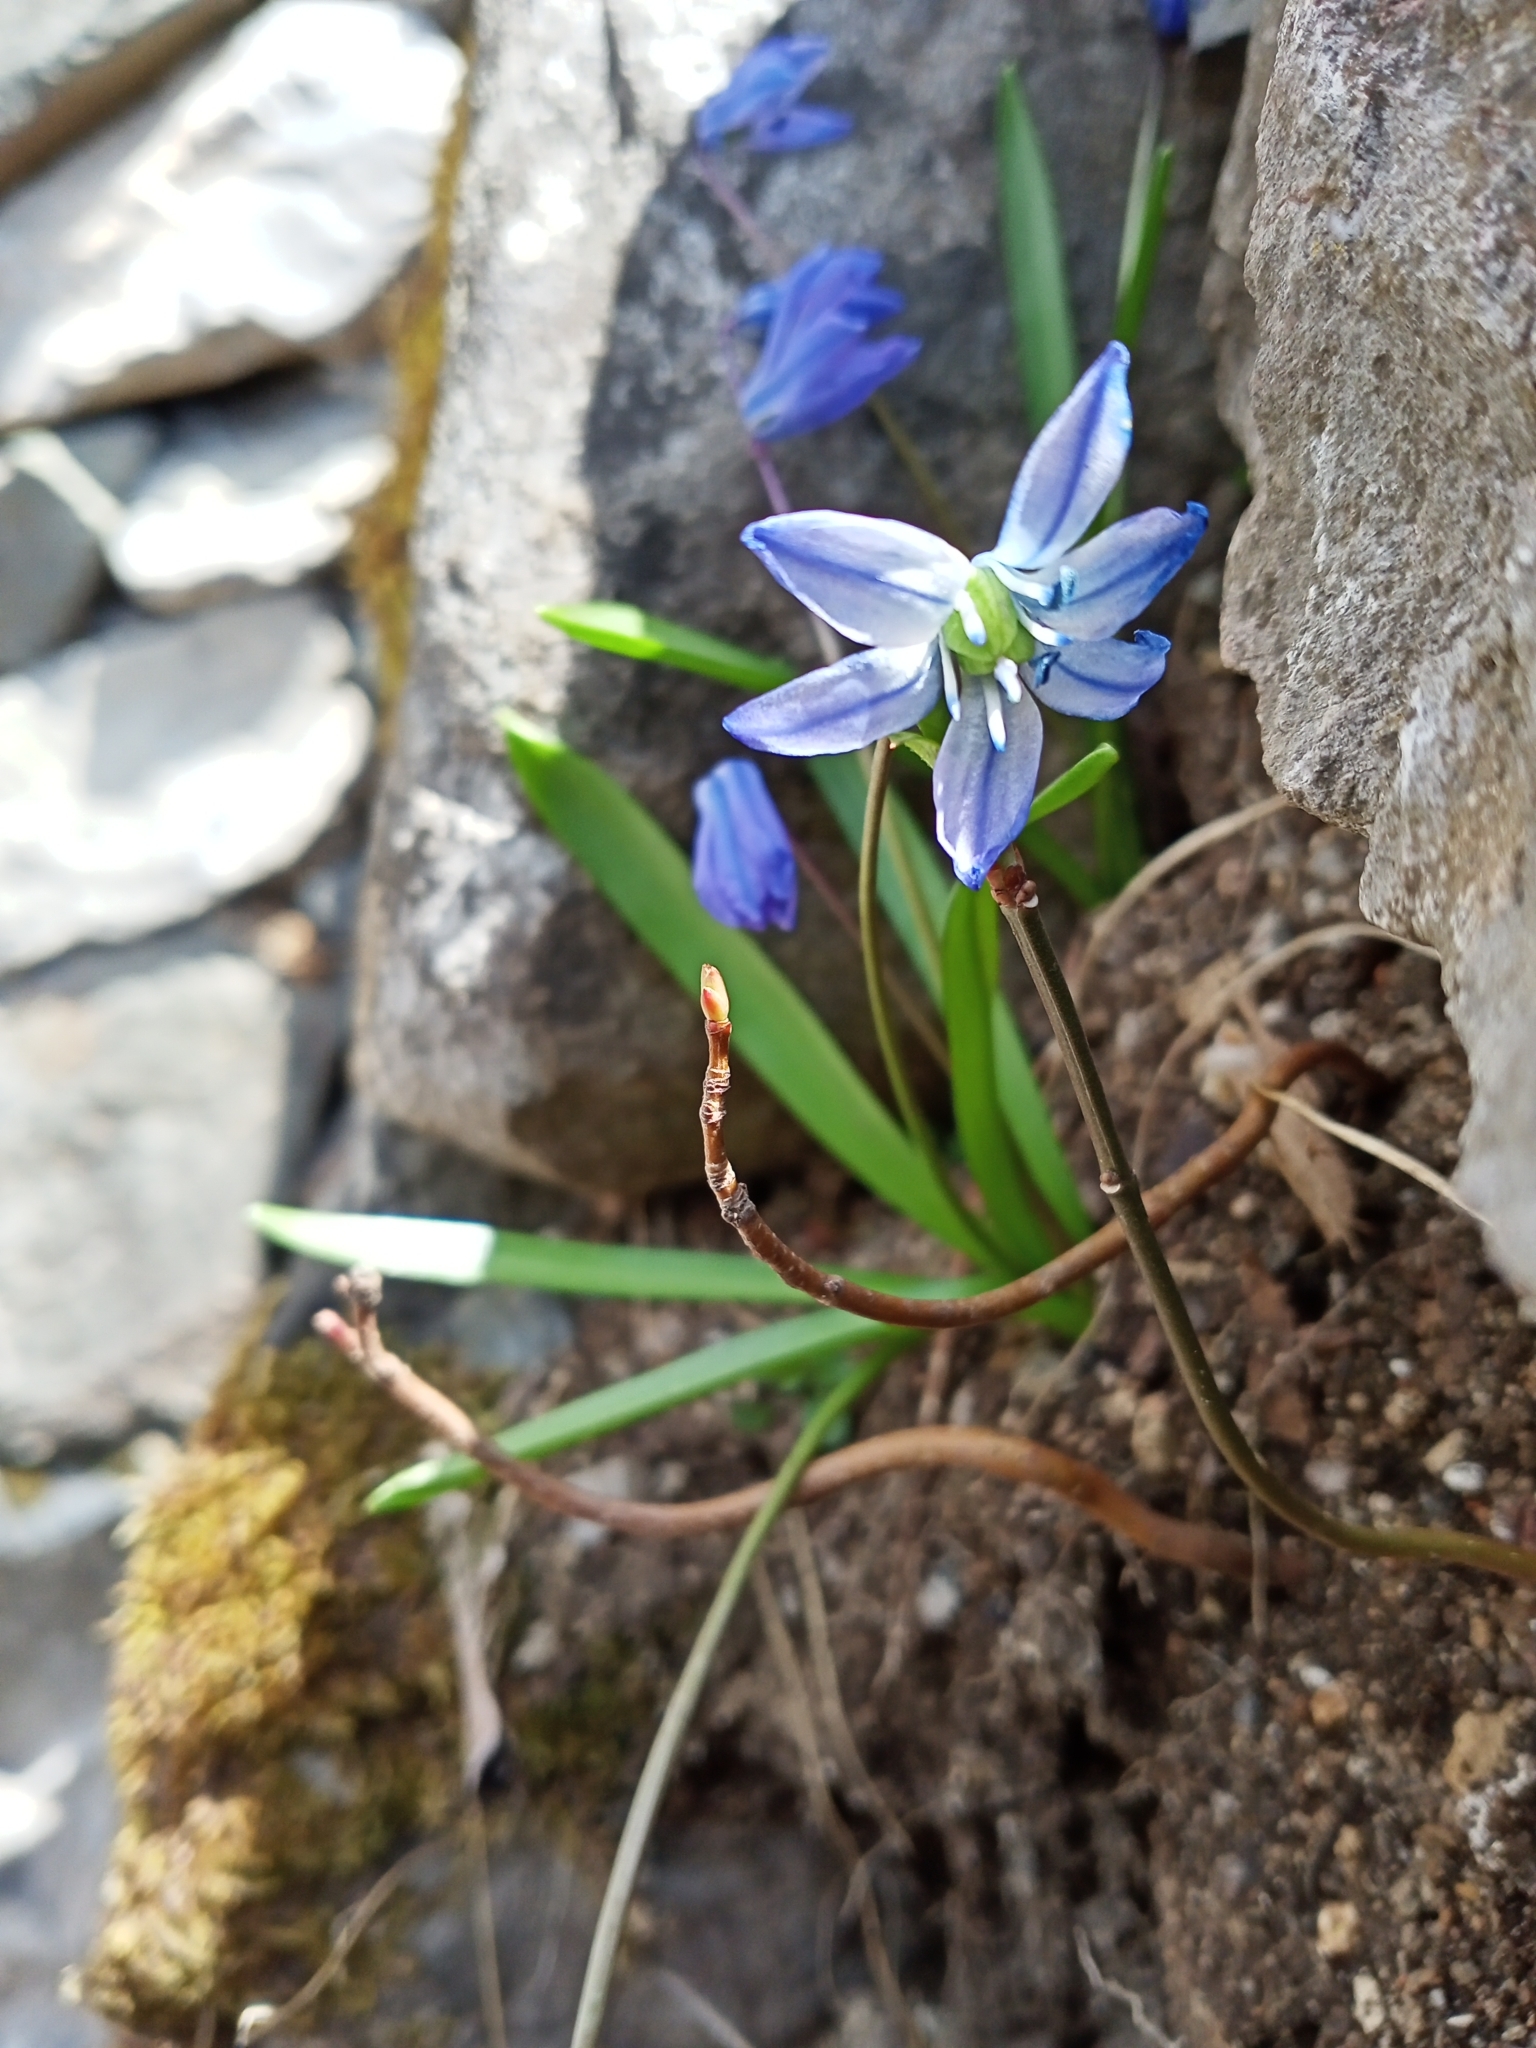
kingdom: Plantae
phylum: Tracheophyta
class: Liliopsida
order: Asparagales
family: Asparagaceae
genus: Scilla
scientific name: Scilla siberica
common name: Siberian squill
